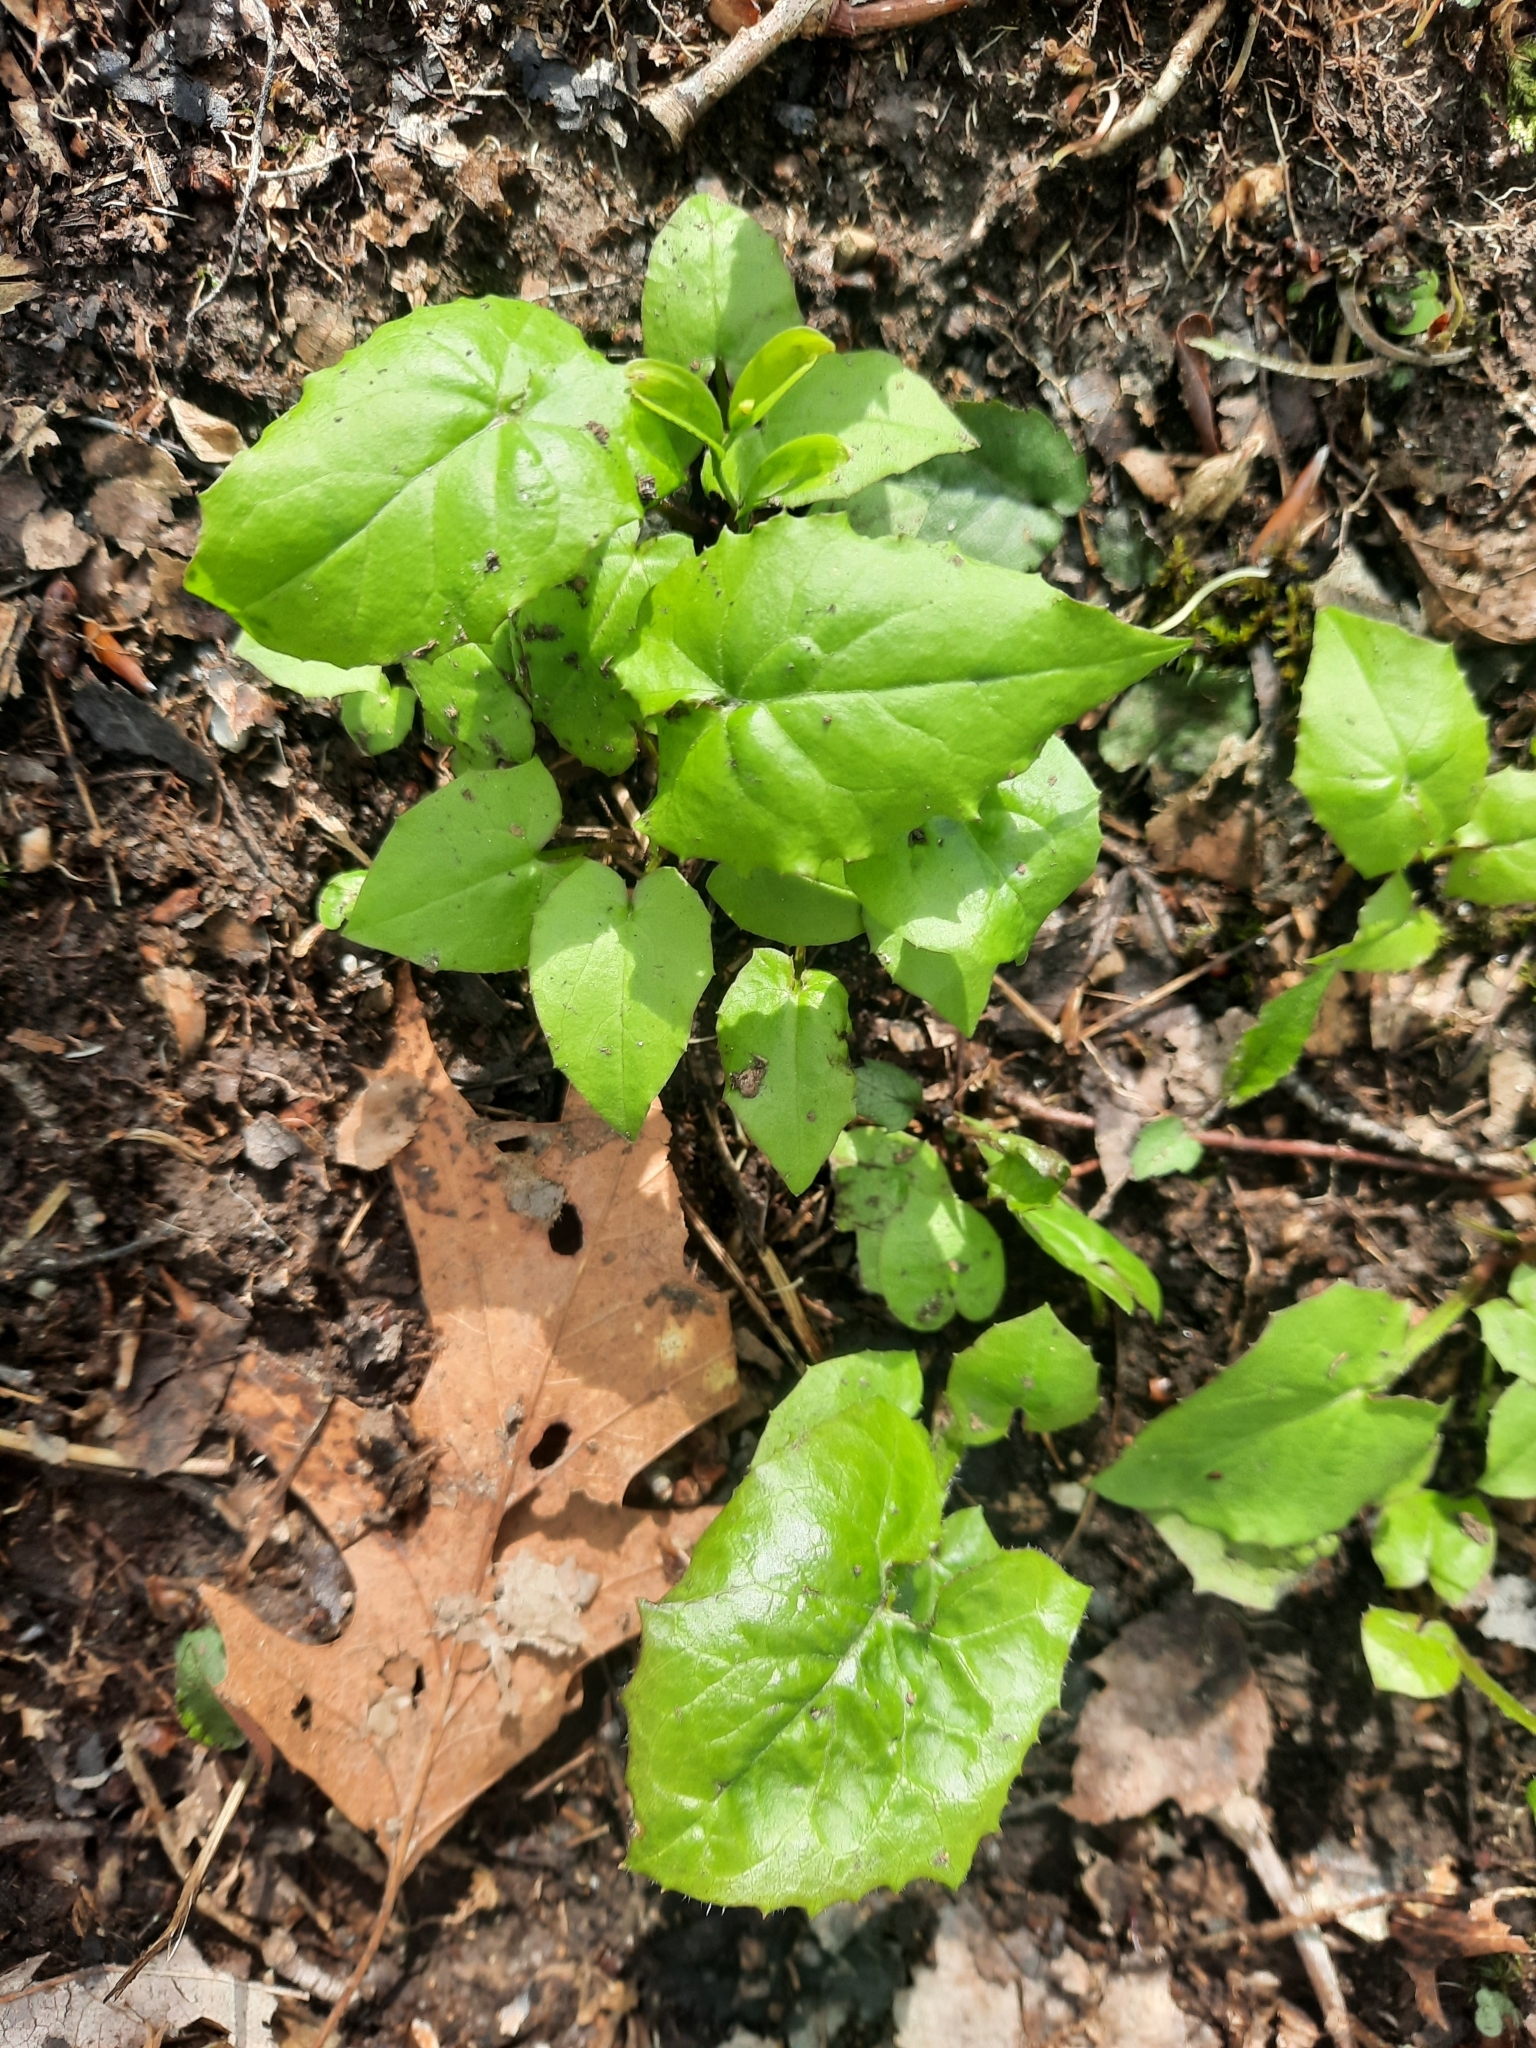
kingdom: Plantae
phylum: Tracheophyta
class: Magnoliopsida
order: Asterales
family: Asteraceae
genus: Nabalus
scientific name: Nabalus
